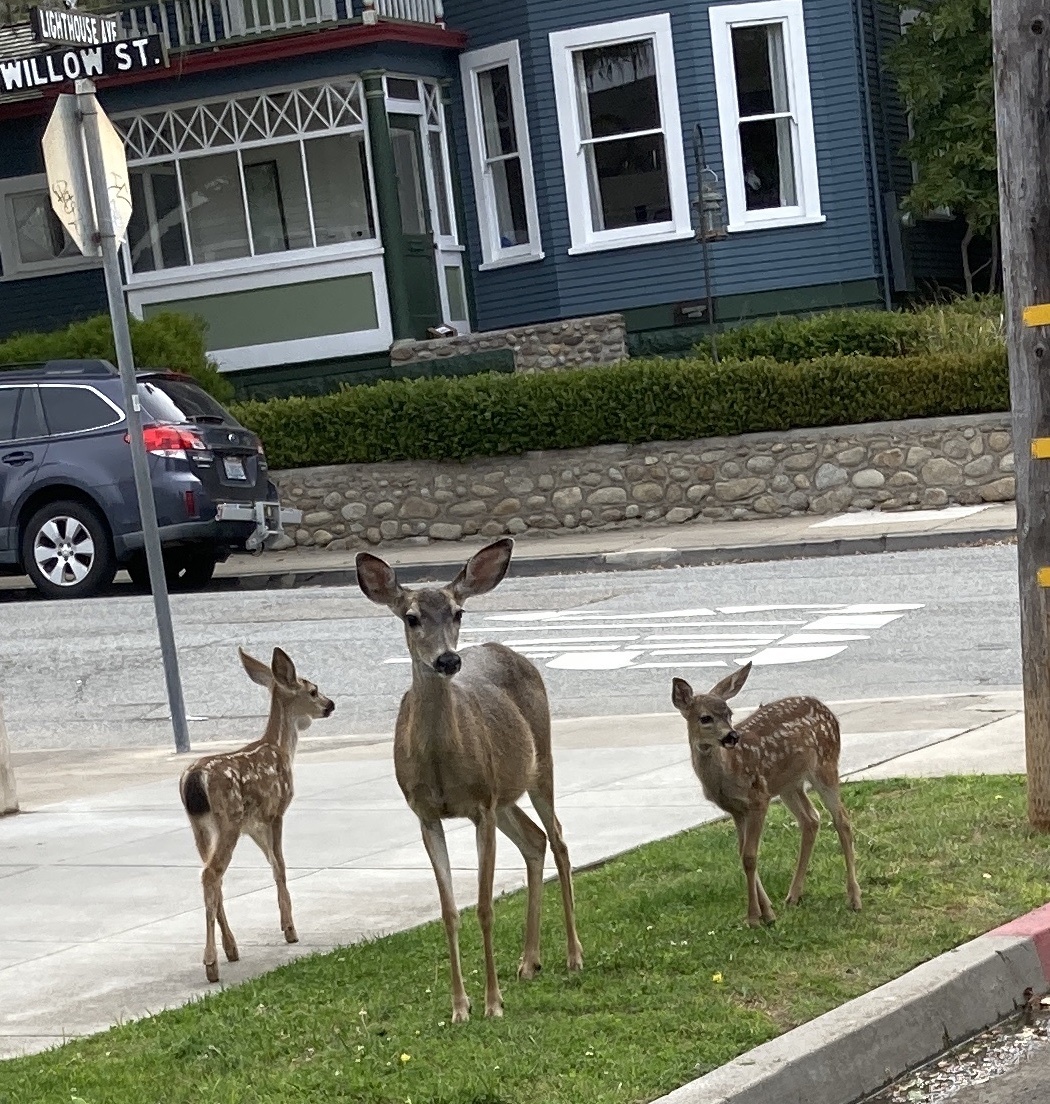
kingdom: Animalia
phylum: Chordata
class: Mammalia
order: Artiodactyla
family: Cervidae
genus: Odocoileus
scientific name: Odocoileus hemionus
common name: Mule deer
